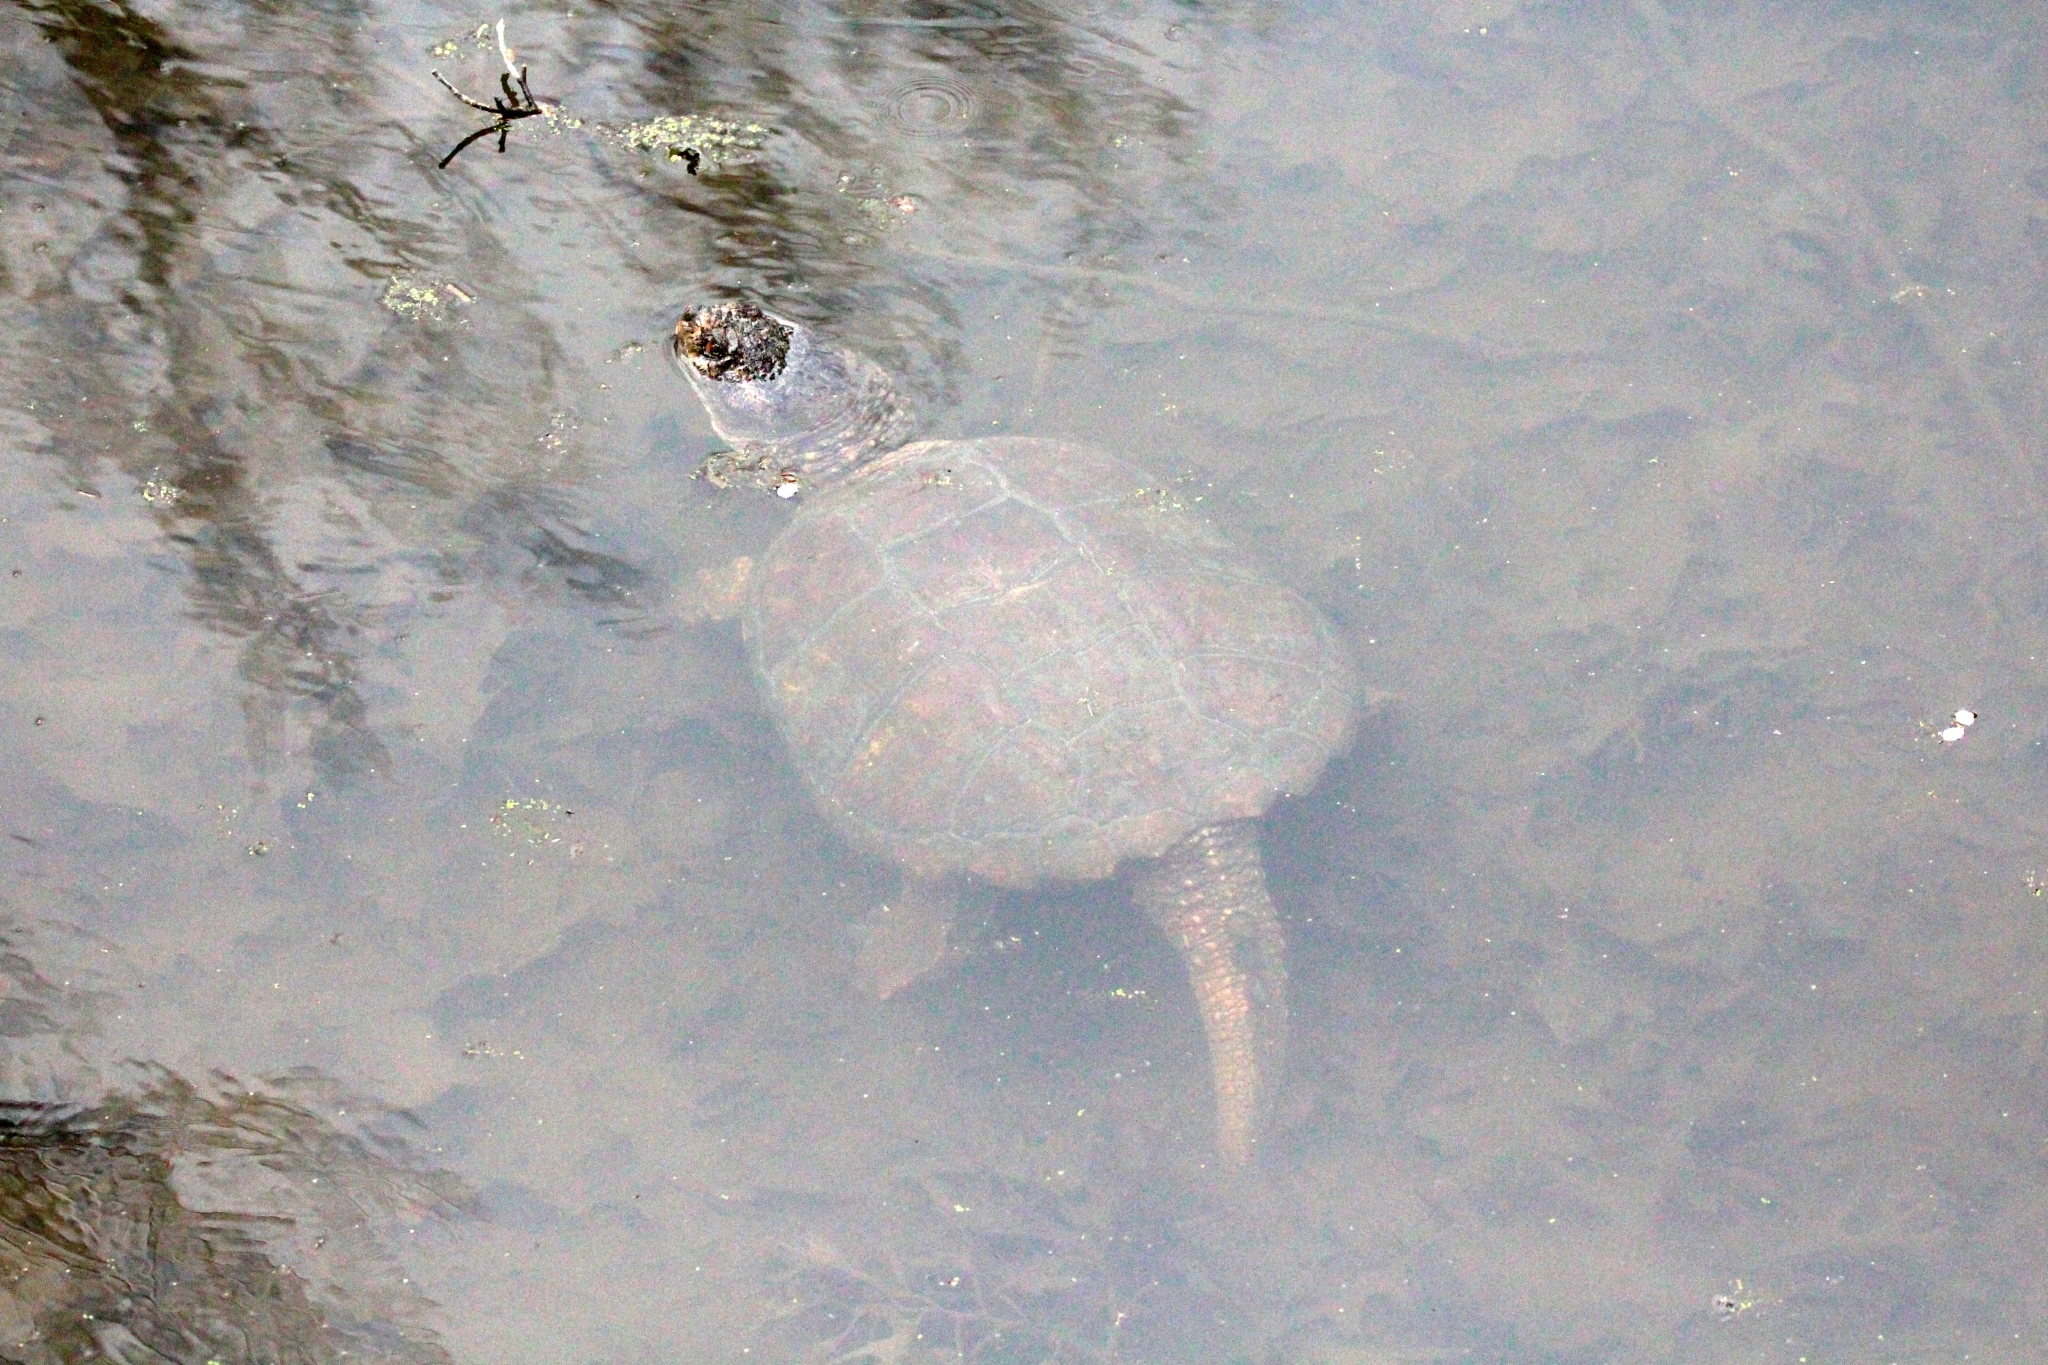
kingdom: Animalia
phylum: Chordata
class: Testudines
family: Chelydridae
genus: Chelydra
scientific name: Chelydra serpentina
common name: Common snapping turtle
